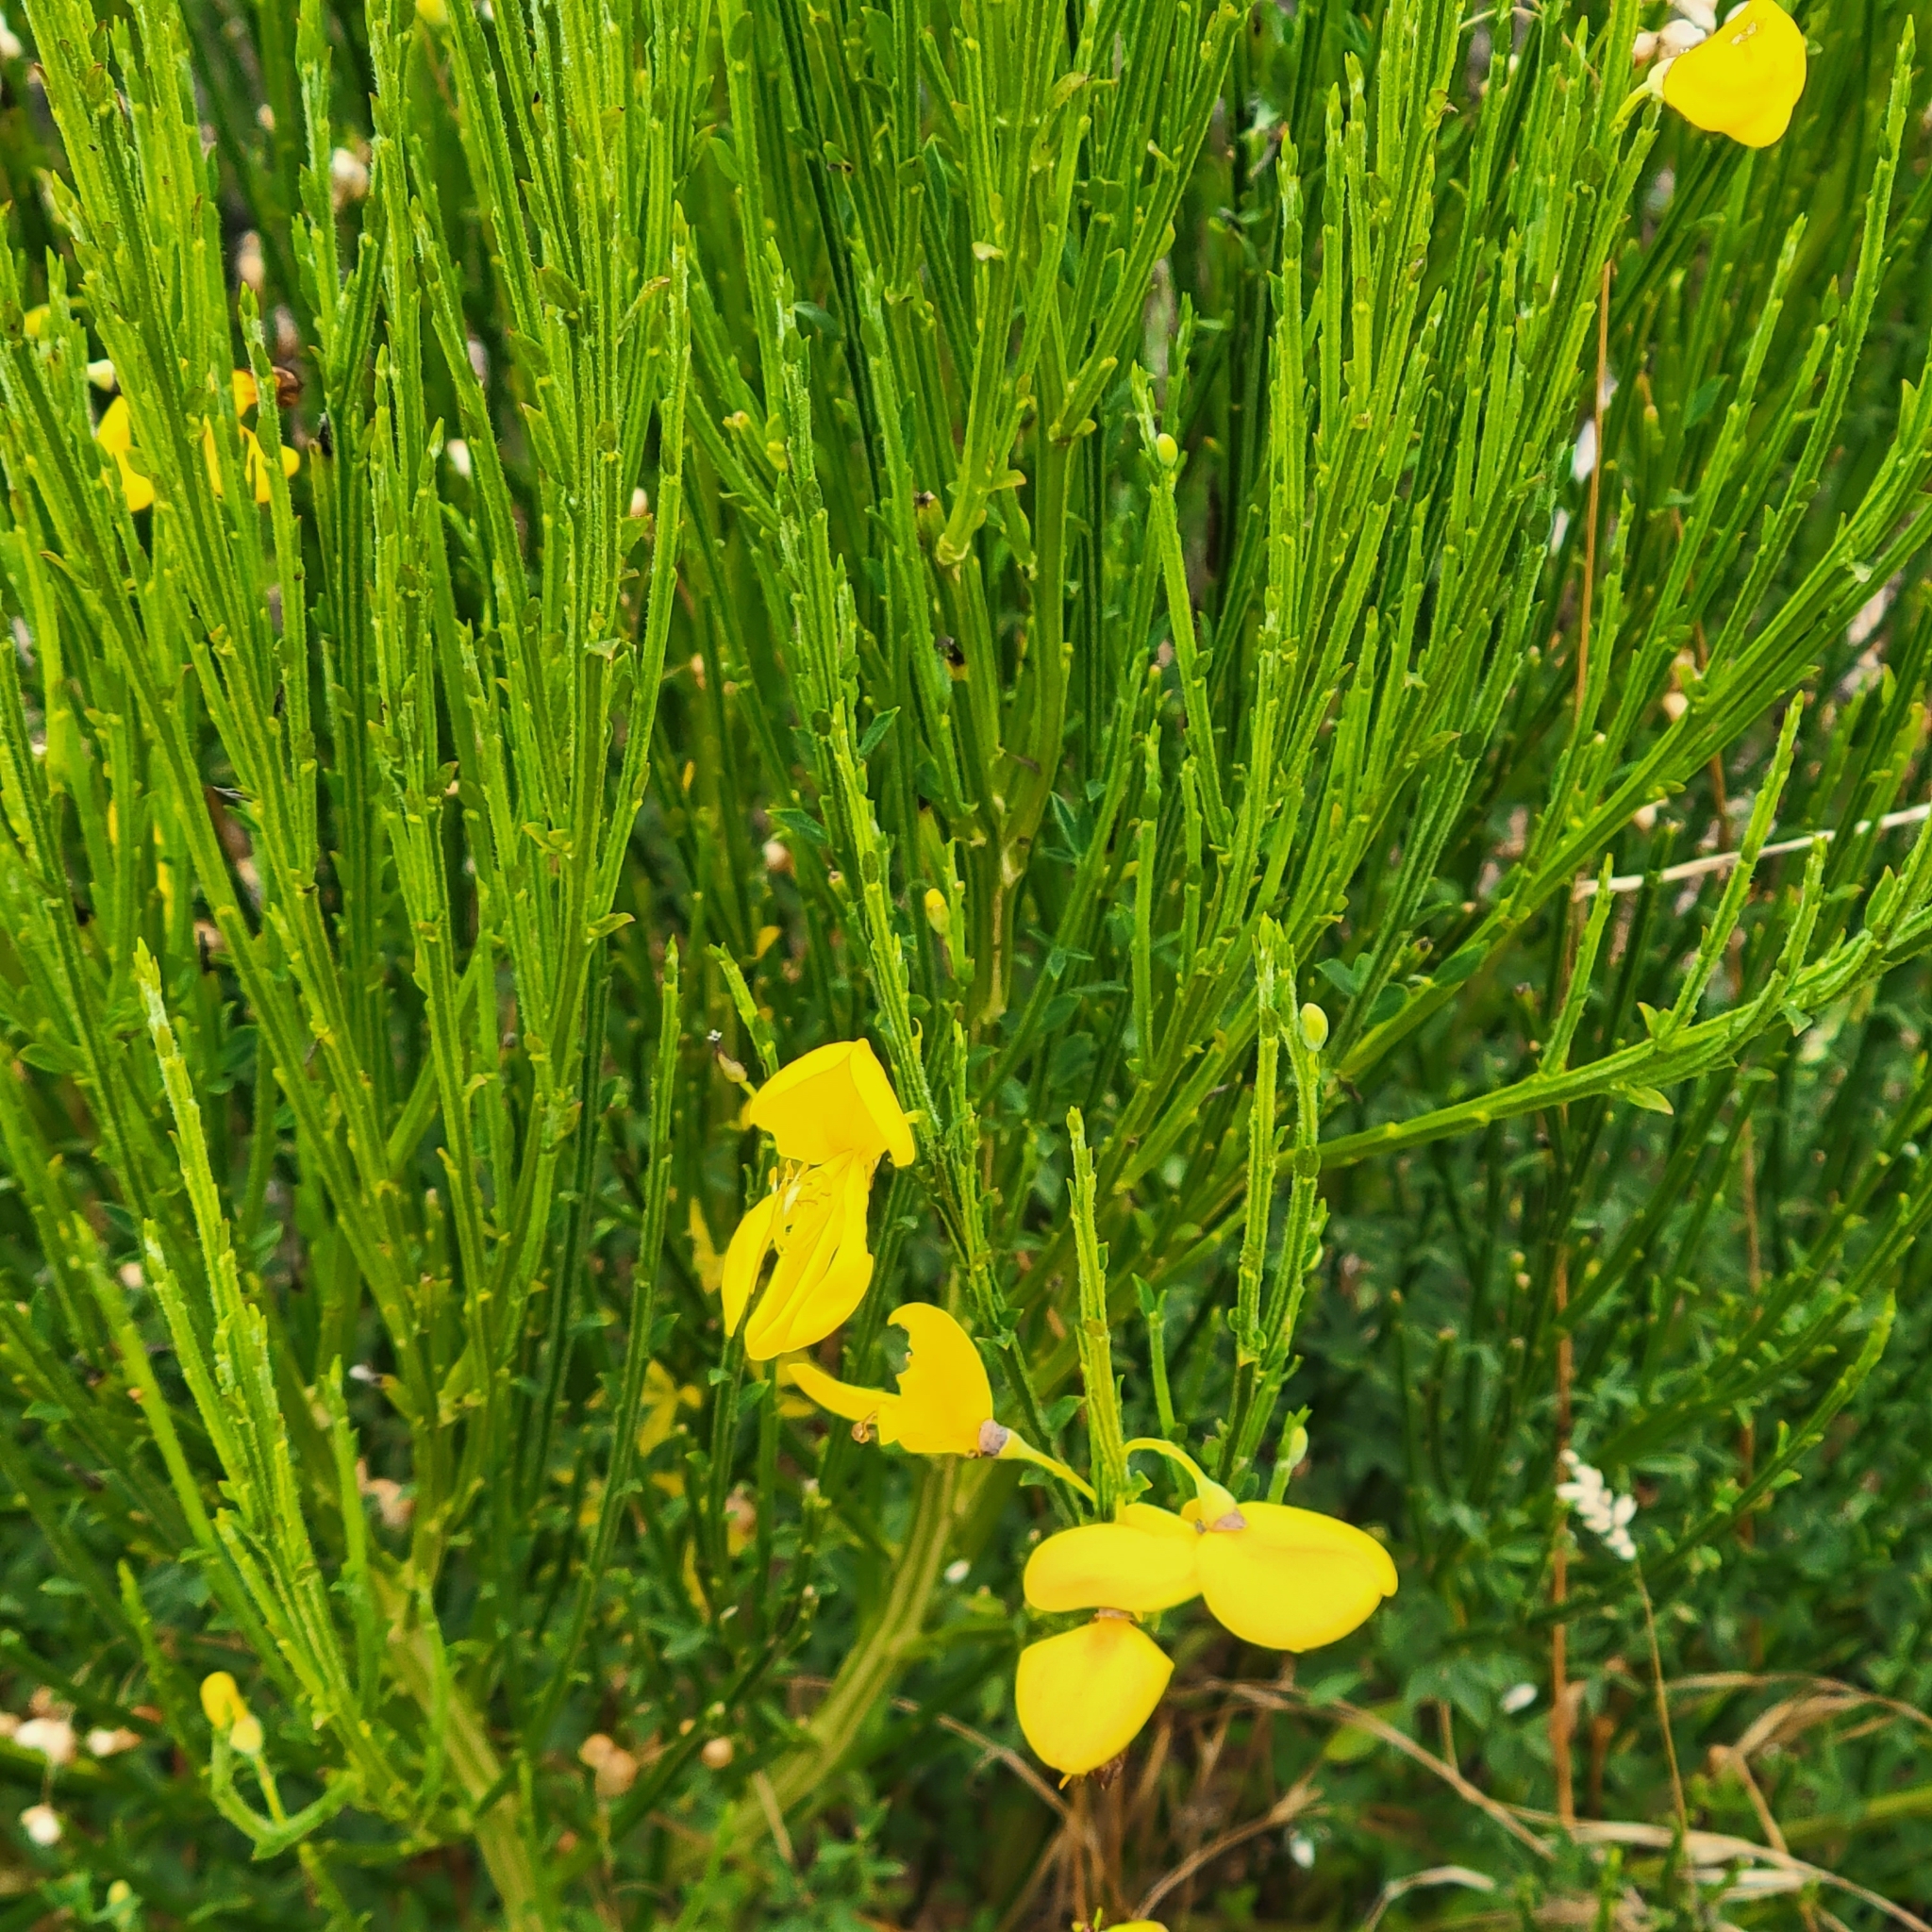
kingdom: Plantae
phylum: Tracheophyta
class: Magnoliopsida
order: Fabales
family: Fabaceae
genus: Cytisus
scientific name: Cytisus scoparius
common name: Scotch broom
